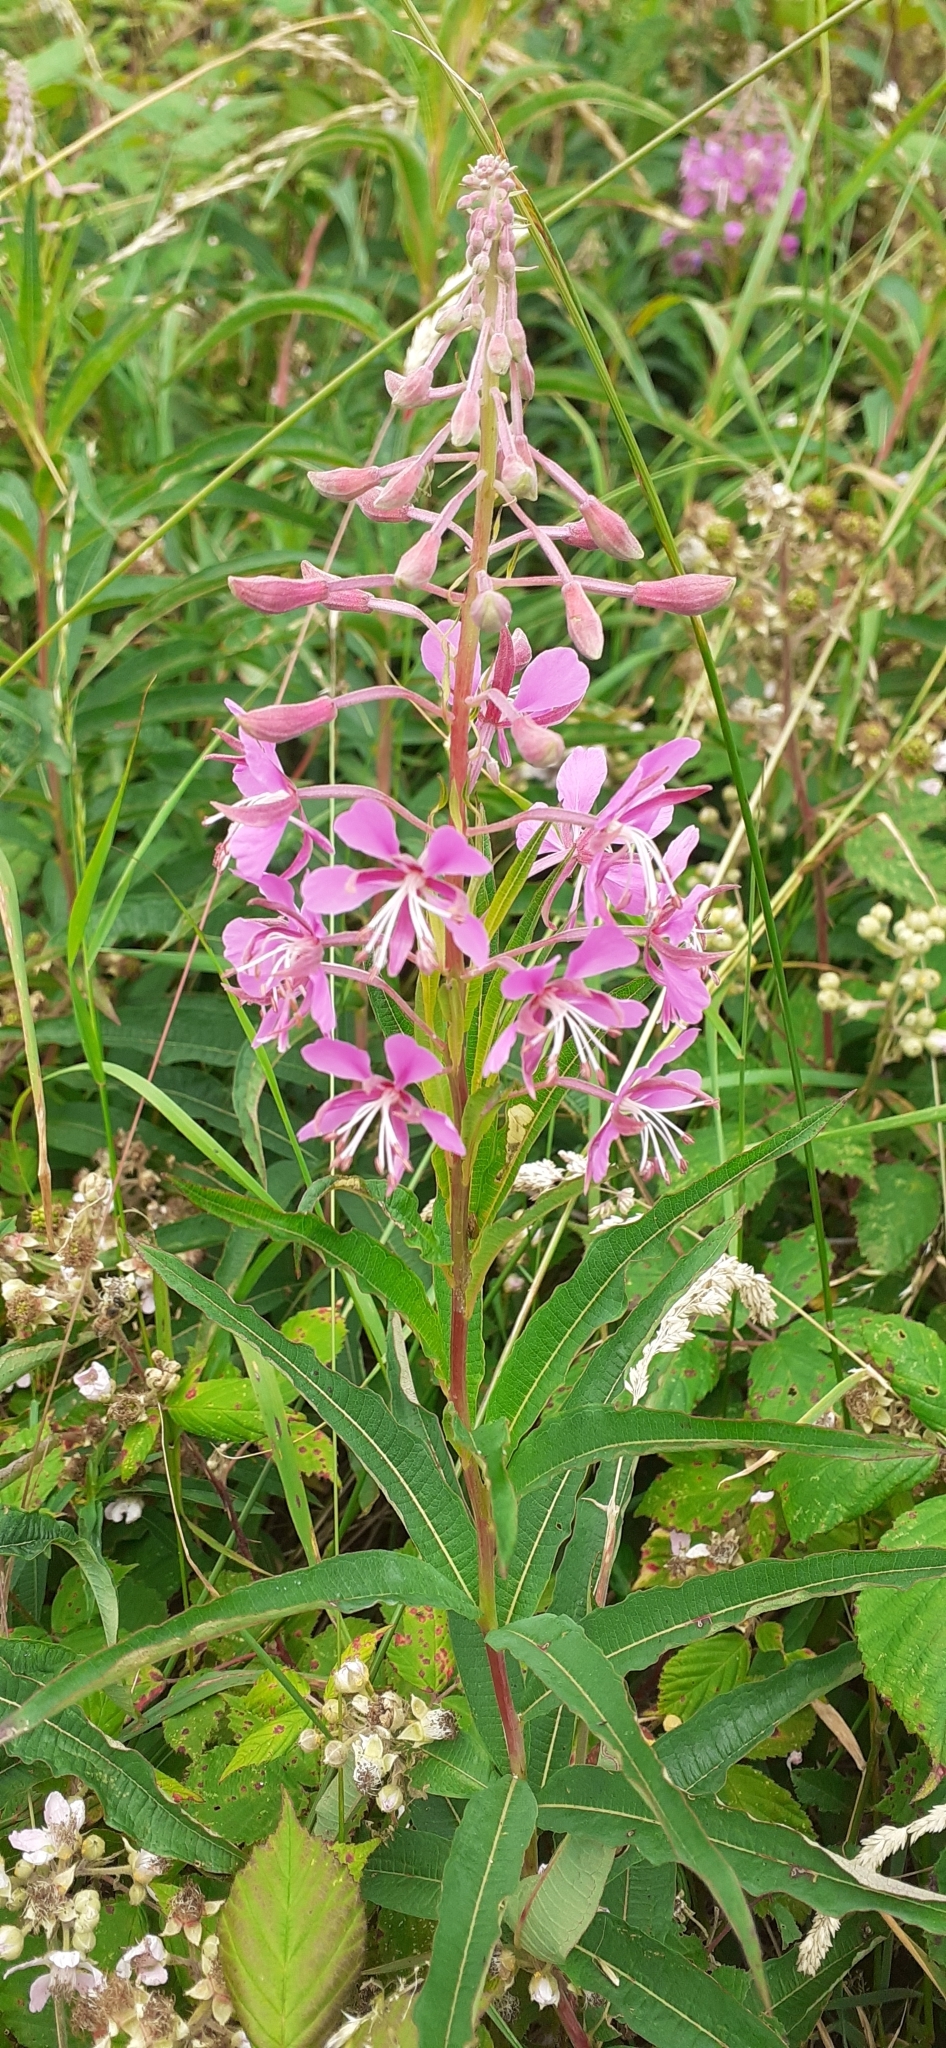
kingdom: Plantae
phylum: Tracheophyta
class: Magnoliopsida
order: Myrtales
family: Onagraceae
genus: Chamaenerion
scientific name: Chamaenerion angustifolium
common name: Fireweed
